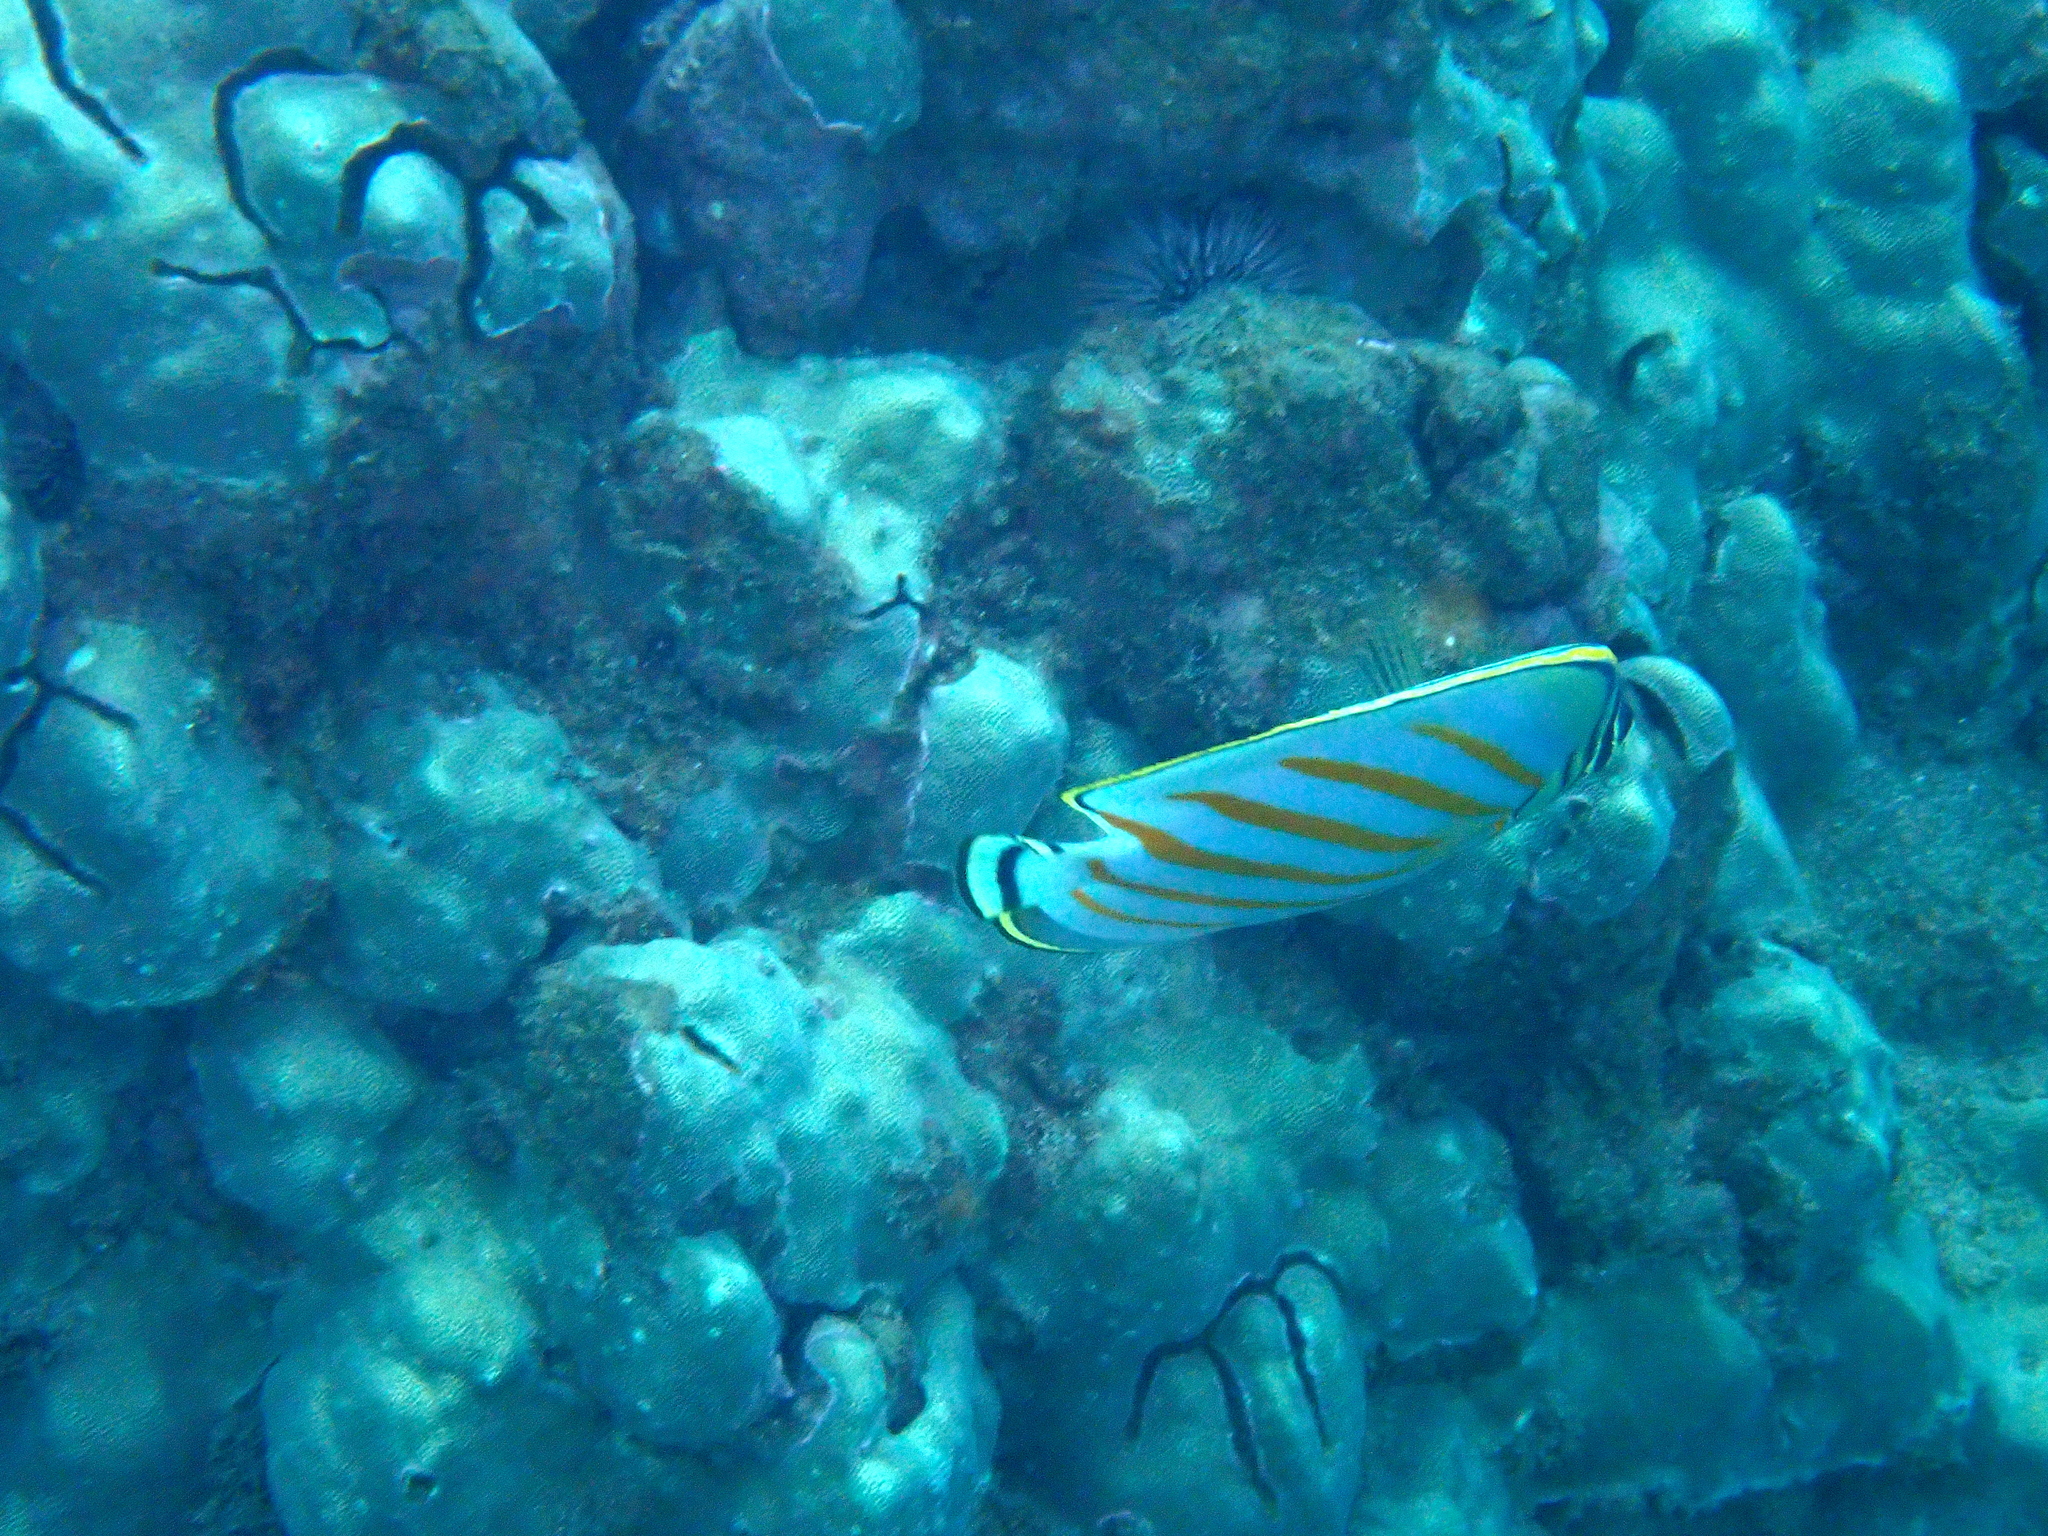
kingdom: Animalia
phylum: Chordata
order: Perciformes
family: Chaetodontidae
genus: Chaetodon
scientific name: Chaetodon ornatissimus
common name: Ornate butterflyfish
